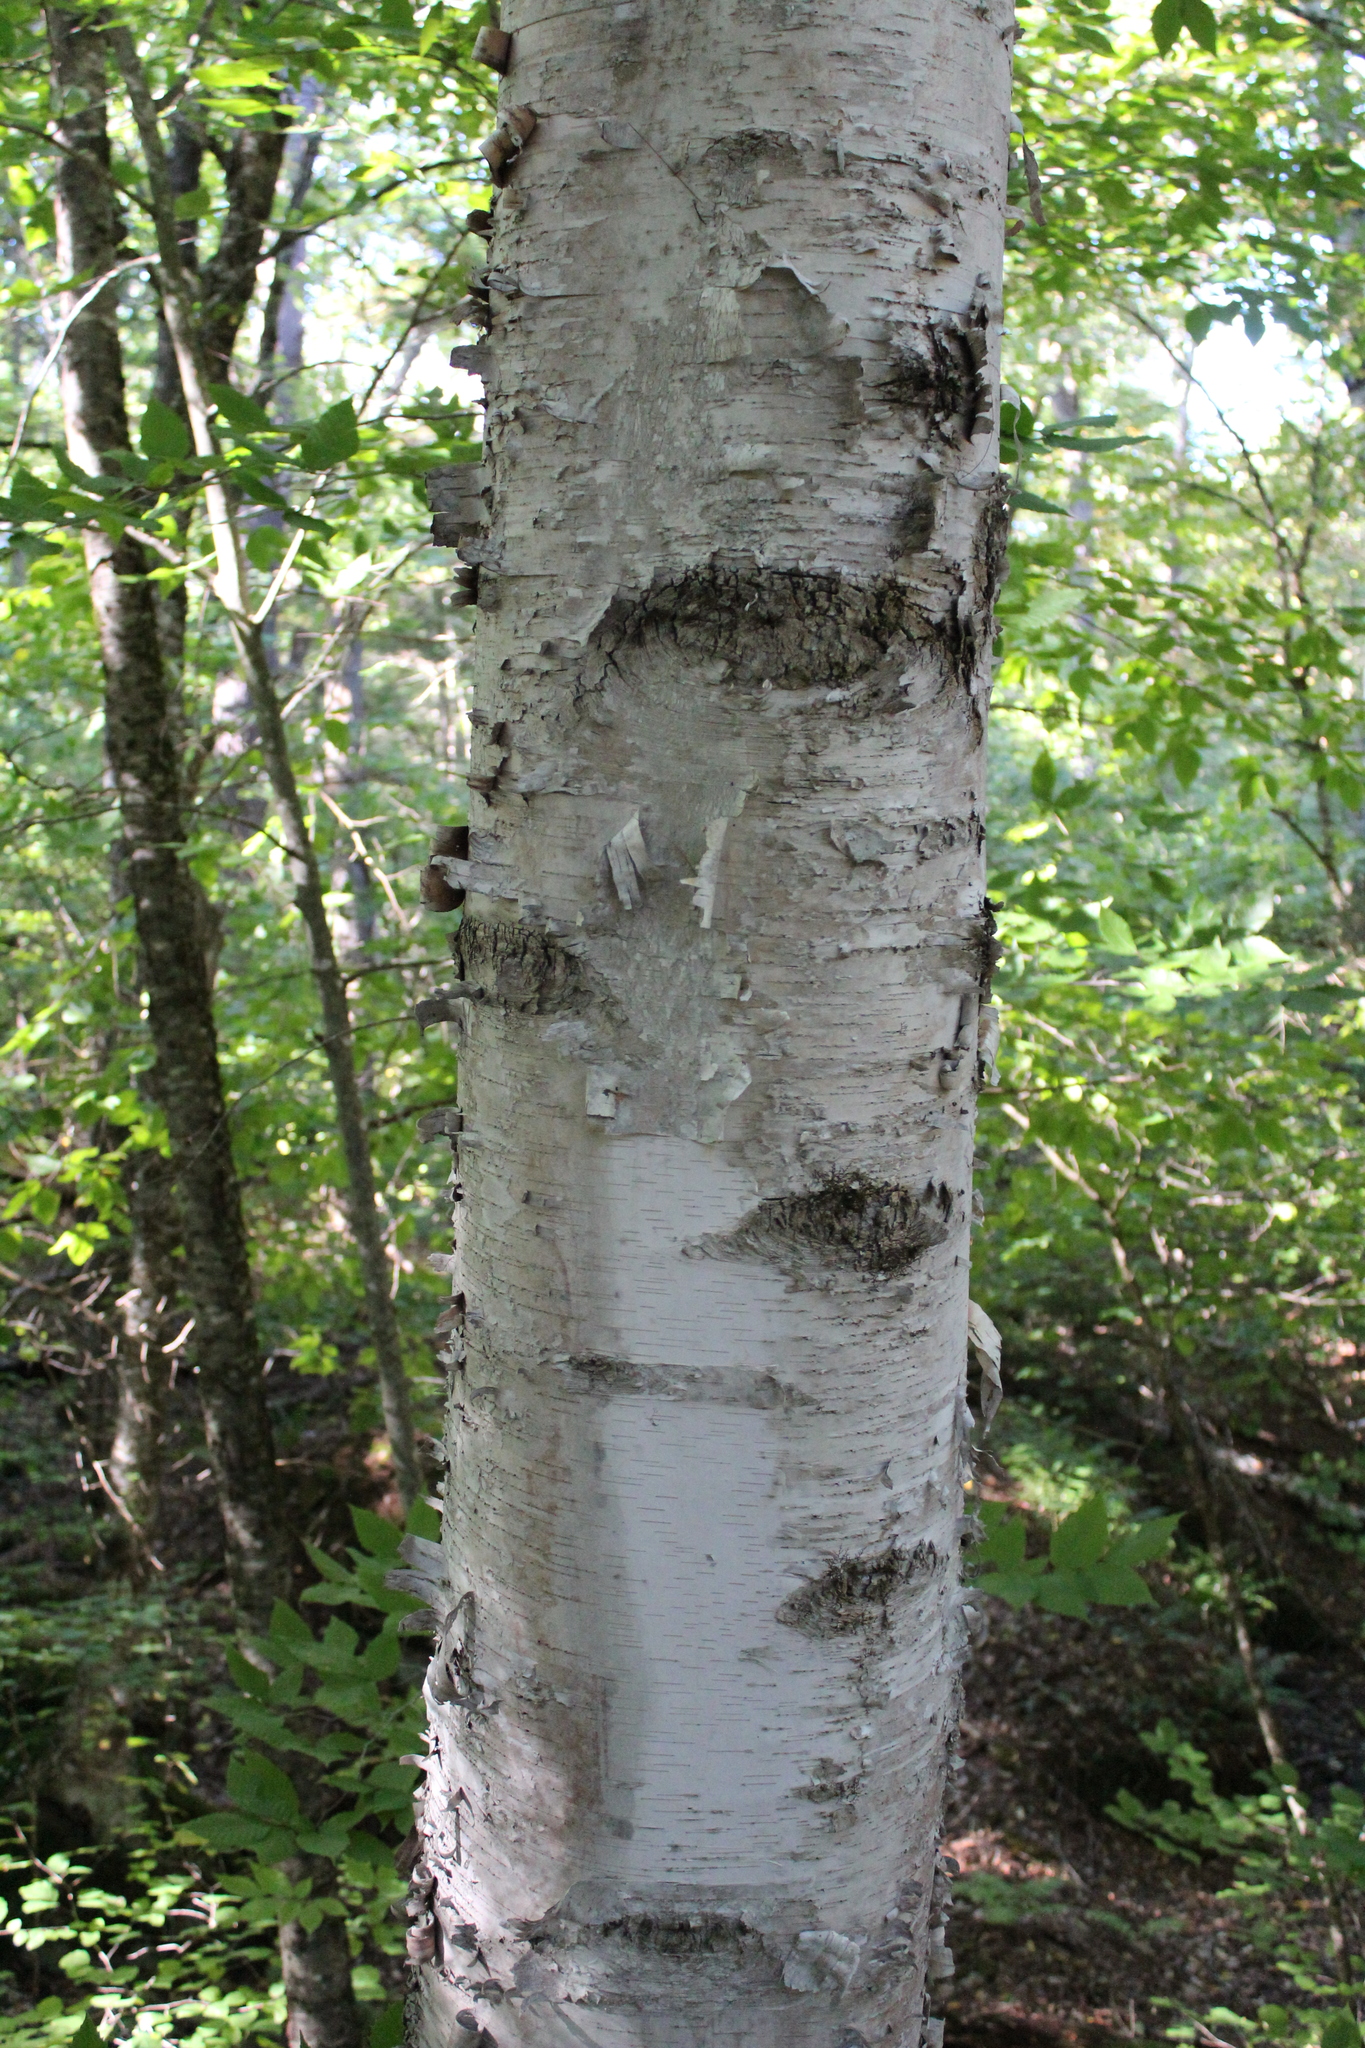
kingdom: Plantae
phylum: Tracheophyta
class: Magnoliopsida
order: Fagales
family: Betulaceae
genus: Betula
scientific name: Betula papyrifera
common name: Paper birch
